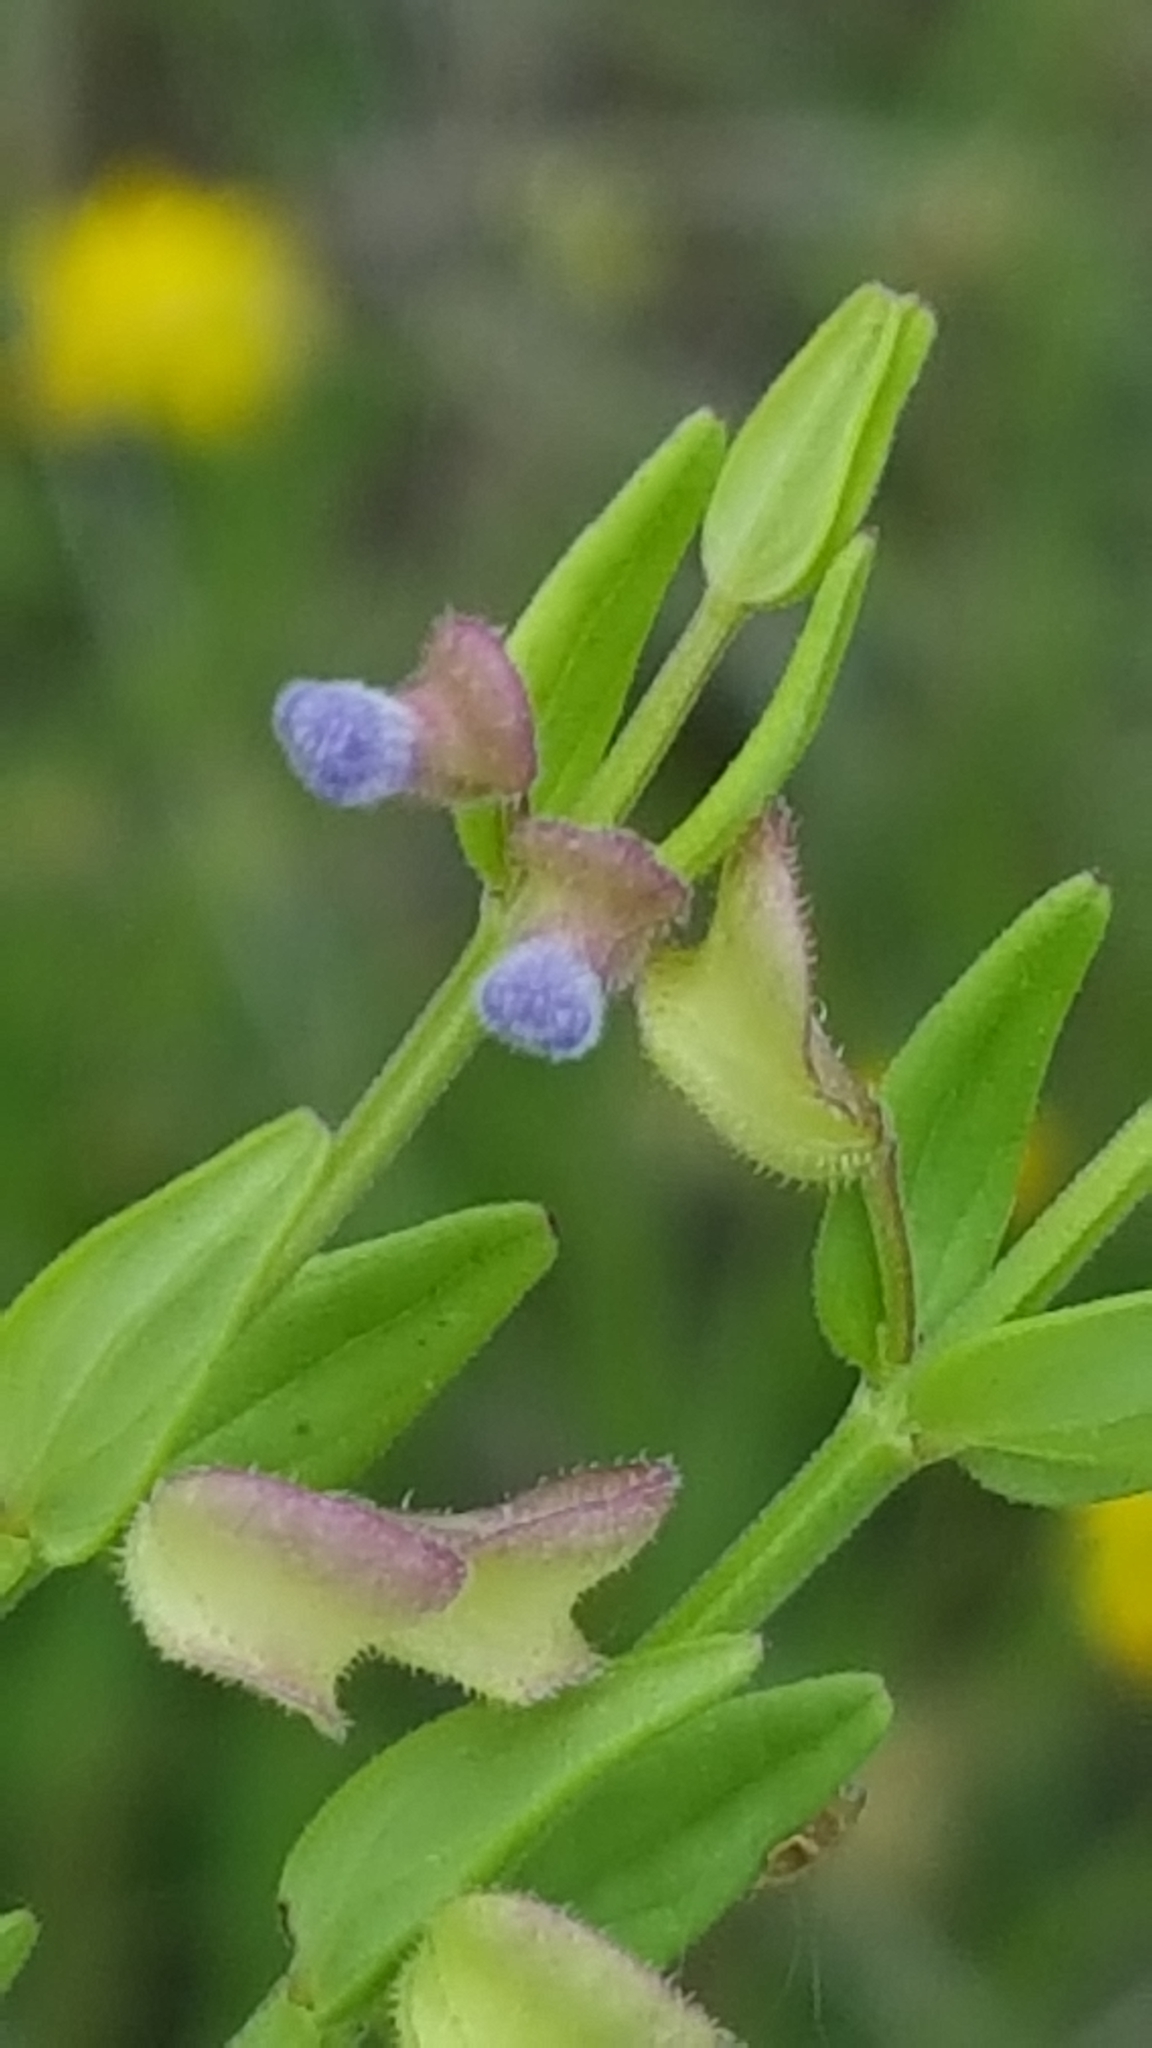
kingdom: Plantae
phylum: Tracheophyta
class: Magnoliopsida
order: Lamiales
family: Lamiaceae
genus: Scutellaria
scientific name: Scutellaria parvula
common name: Little scullcap
